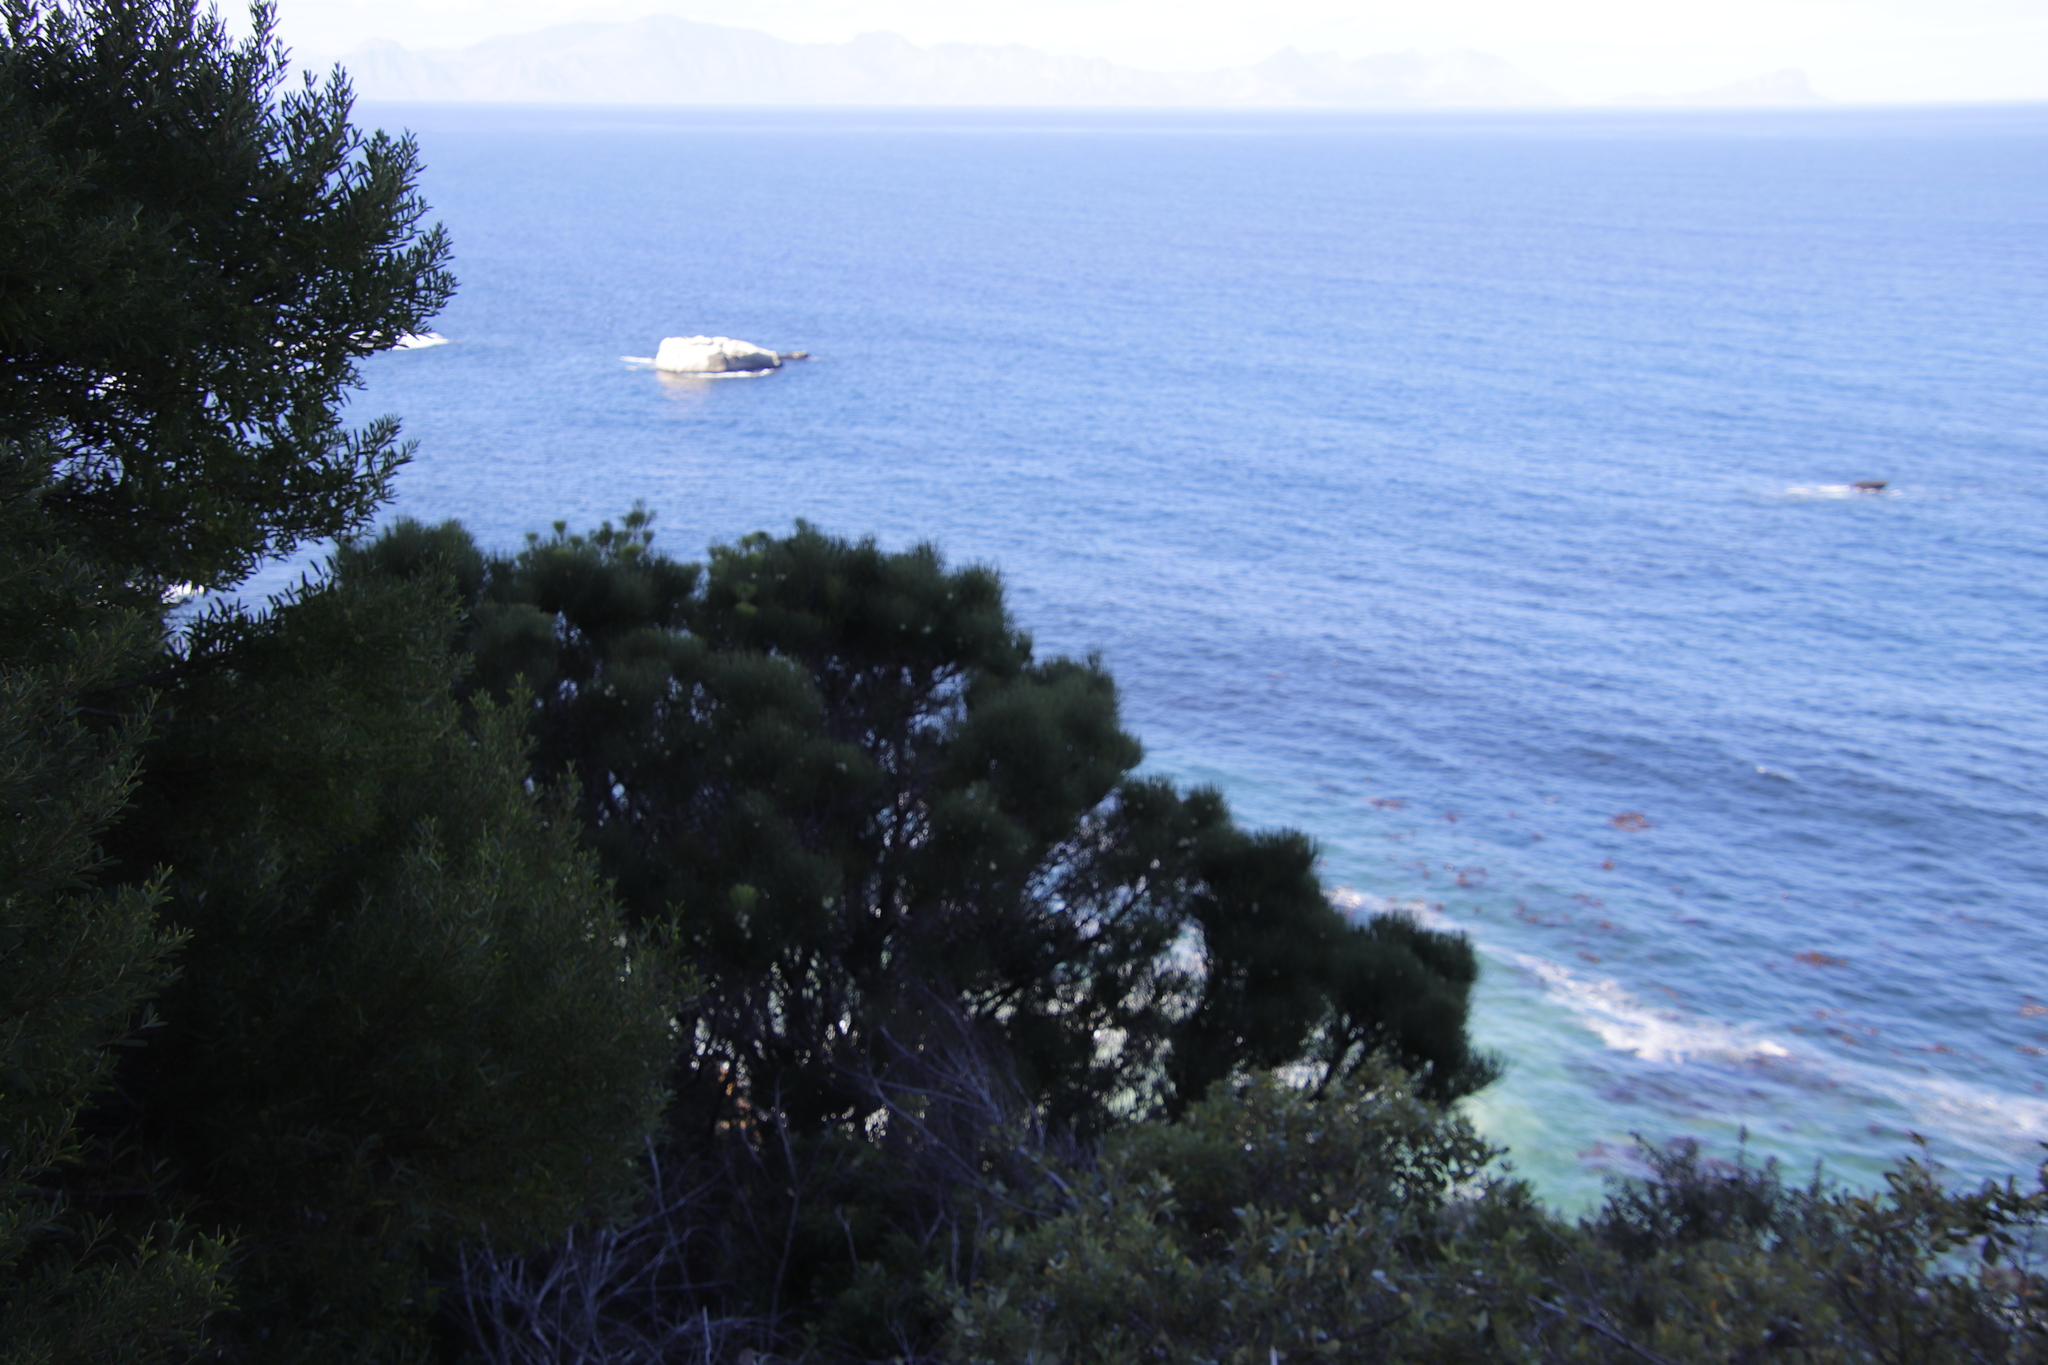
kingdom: Plantae
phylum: Tracheophyta
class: Magnoliopsida
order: Proteales
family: Proteaceae
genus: Hakea
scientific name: Hakea drupacea
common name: Sweet hakea
